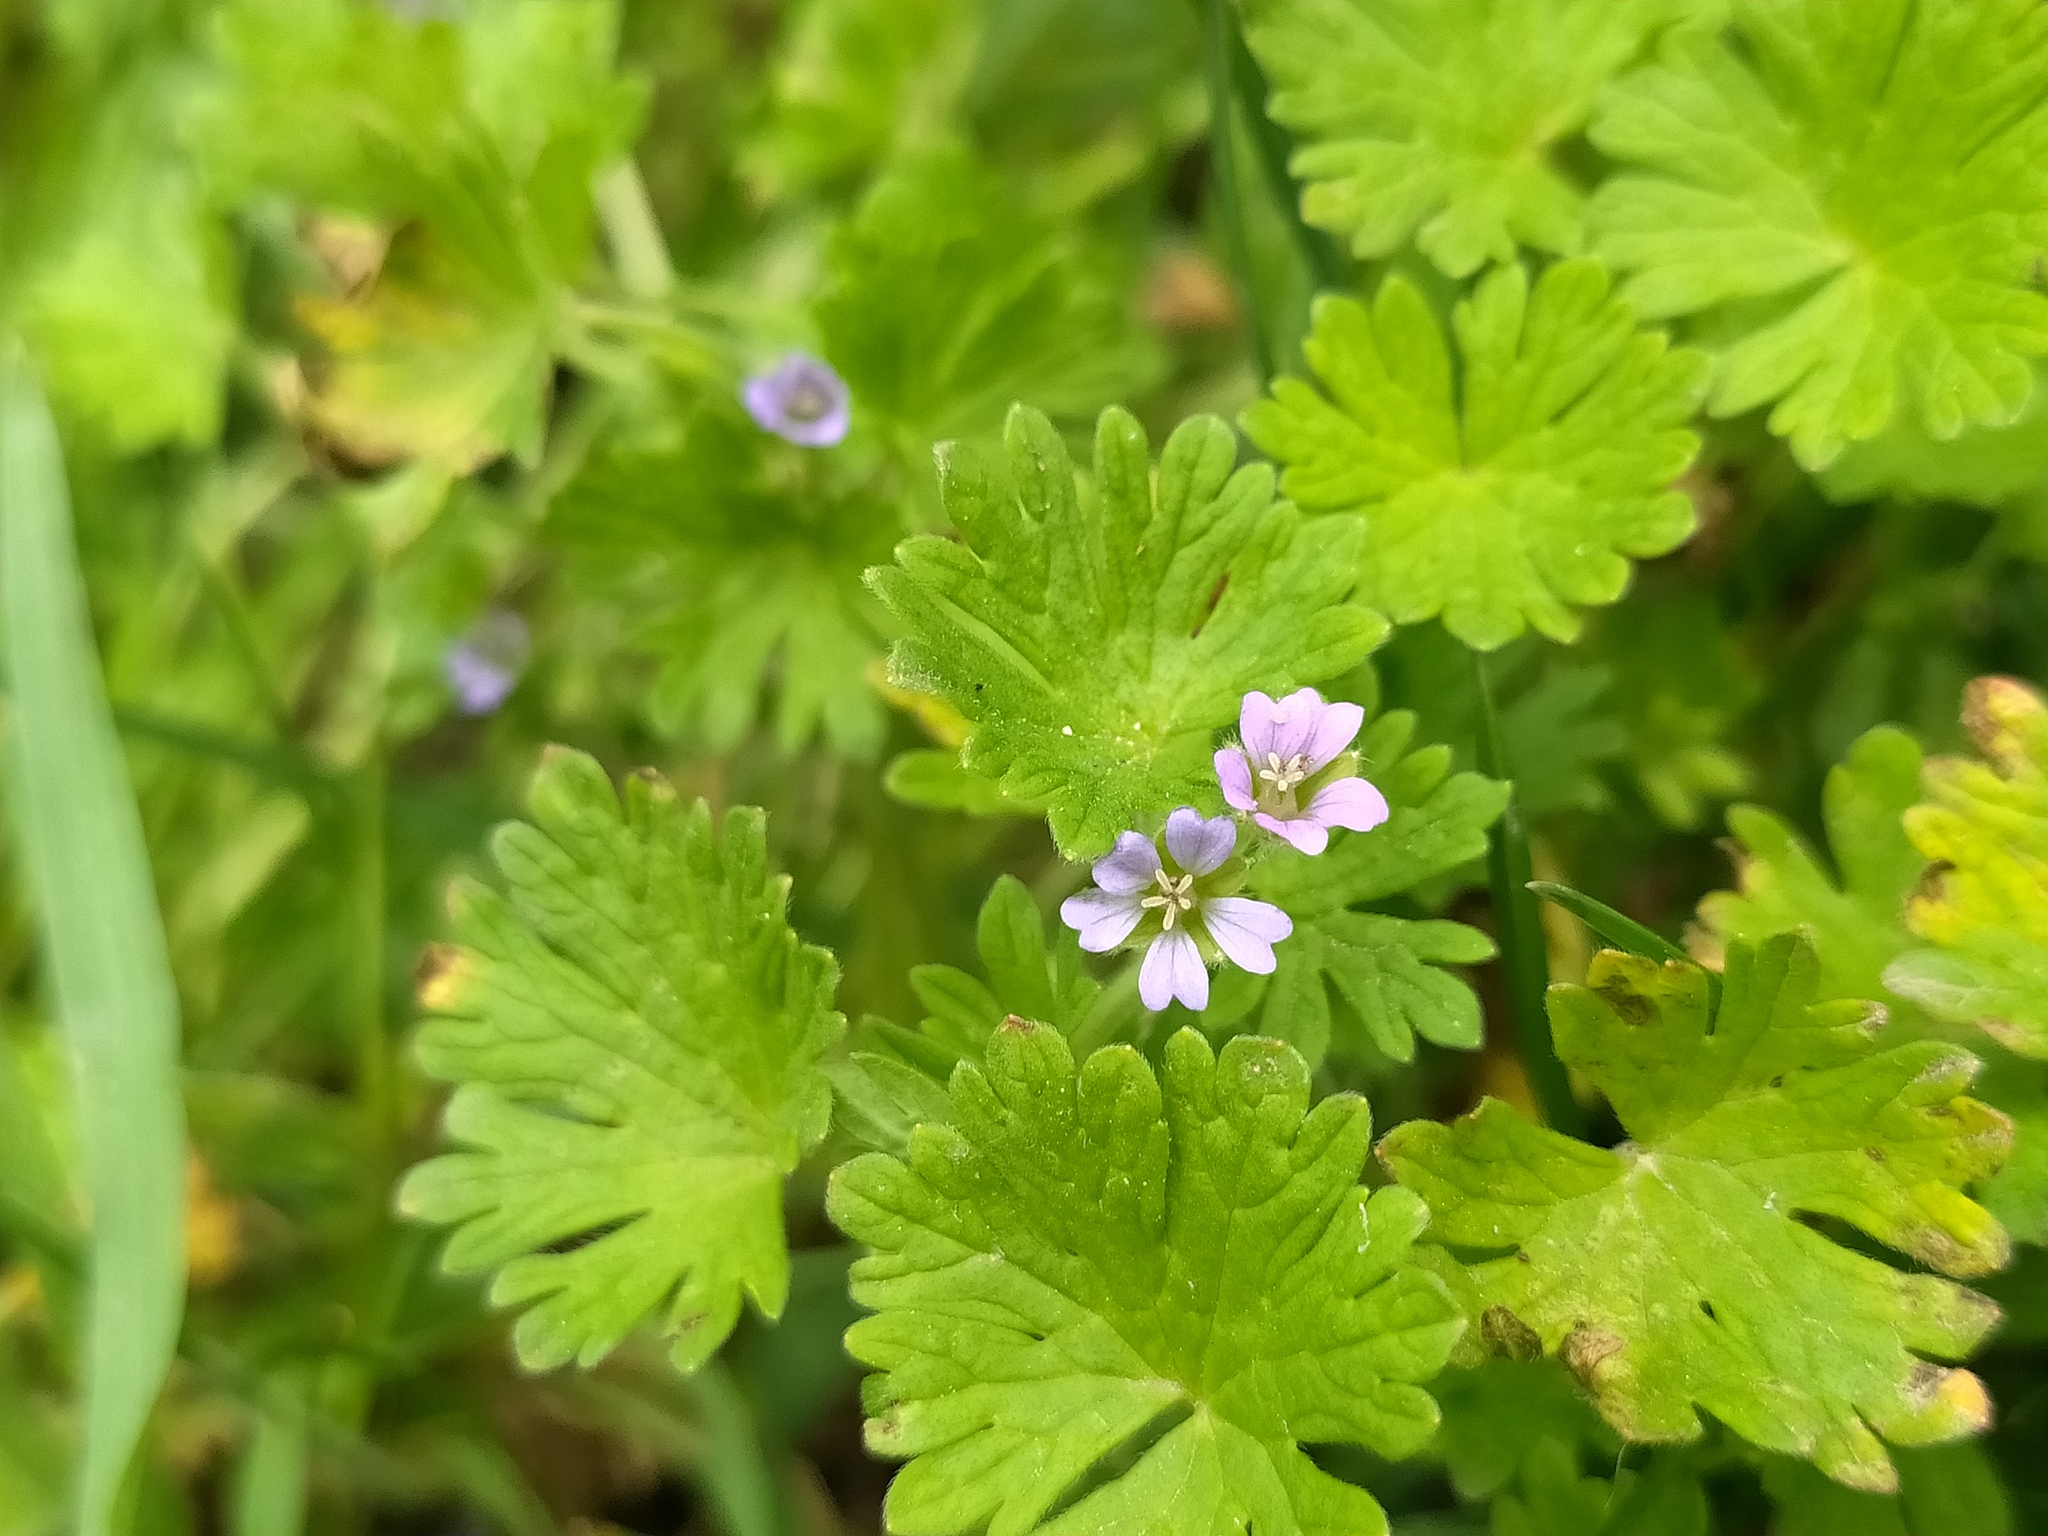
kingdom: Plantae
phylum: Tracheophyta
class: Magnoliopsida
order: Geraniales
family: Geraniaceae
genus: Geranium
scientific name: Geranium pusillum
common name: Small geranium
